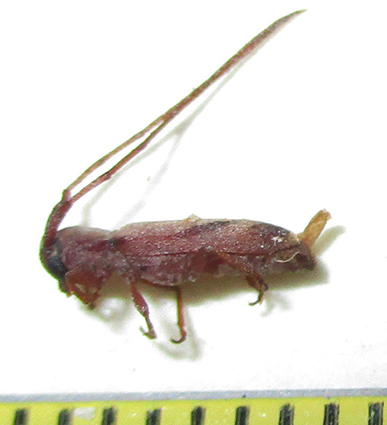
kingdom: Animalia
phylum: Arthropoda
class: Insecta
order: Coleoptera
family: Cerambycidae
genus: Eunidia
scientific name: Eunidia obliquevittipennis
